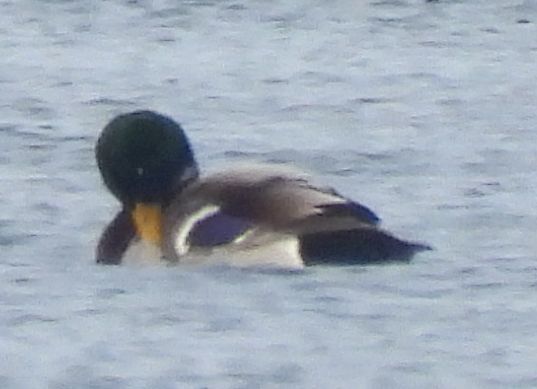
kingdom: Animalia
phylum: Chordata
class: Aves
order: Anseriformes
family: Anatidae
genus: Anas
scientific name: Anas platyrhynchos
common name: Mallard
